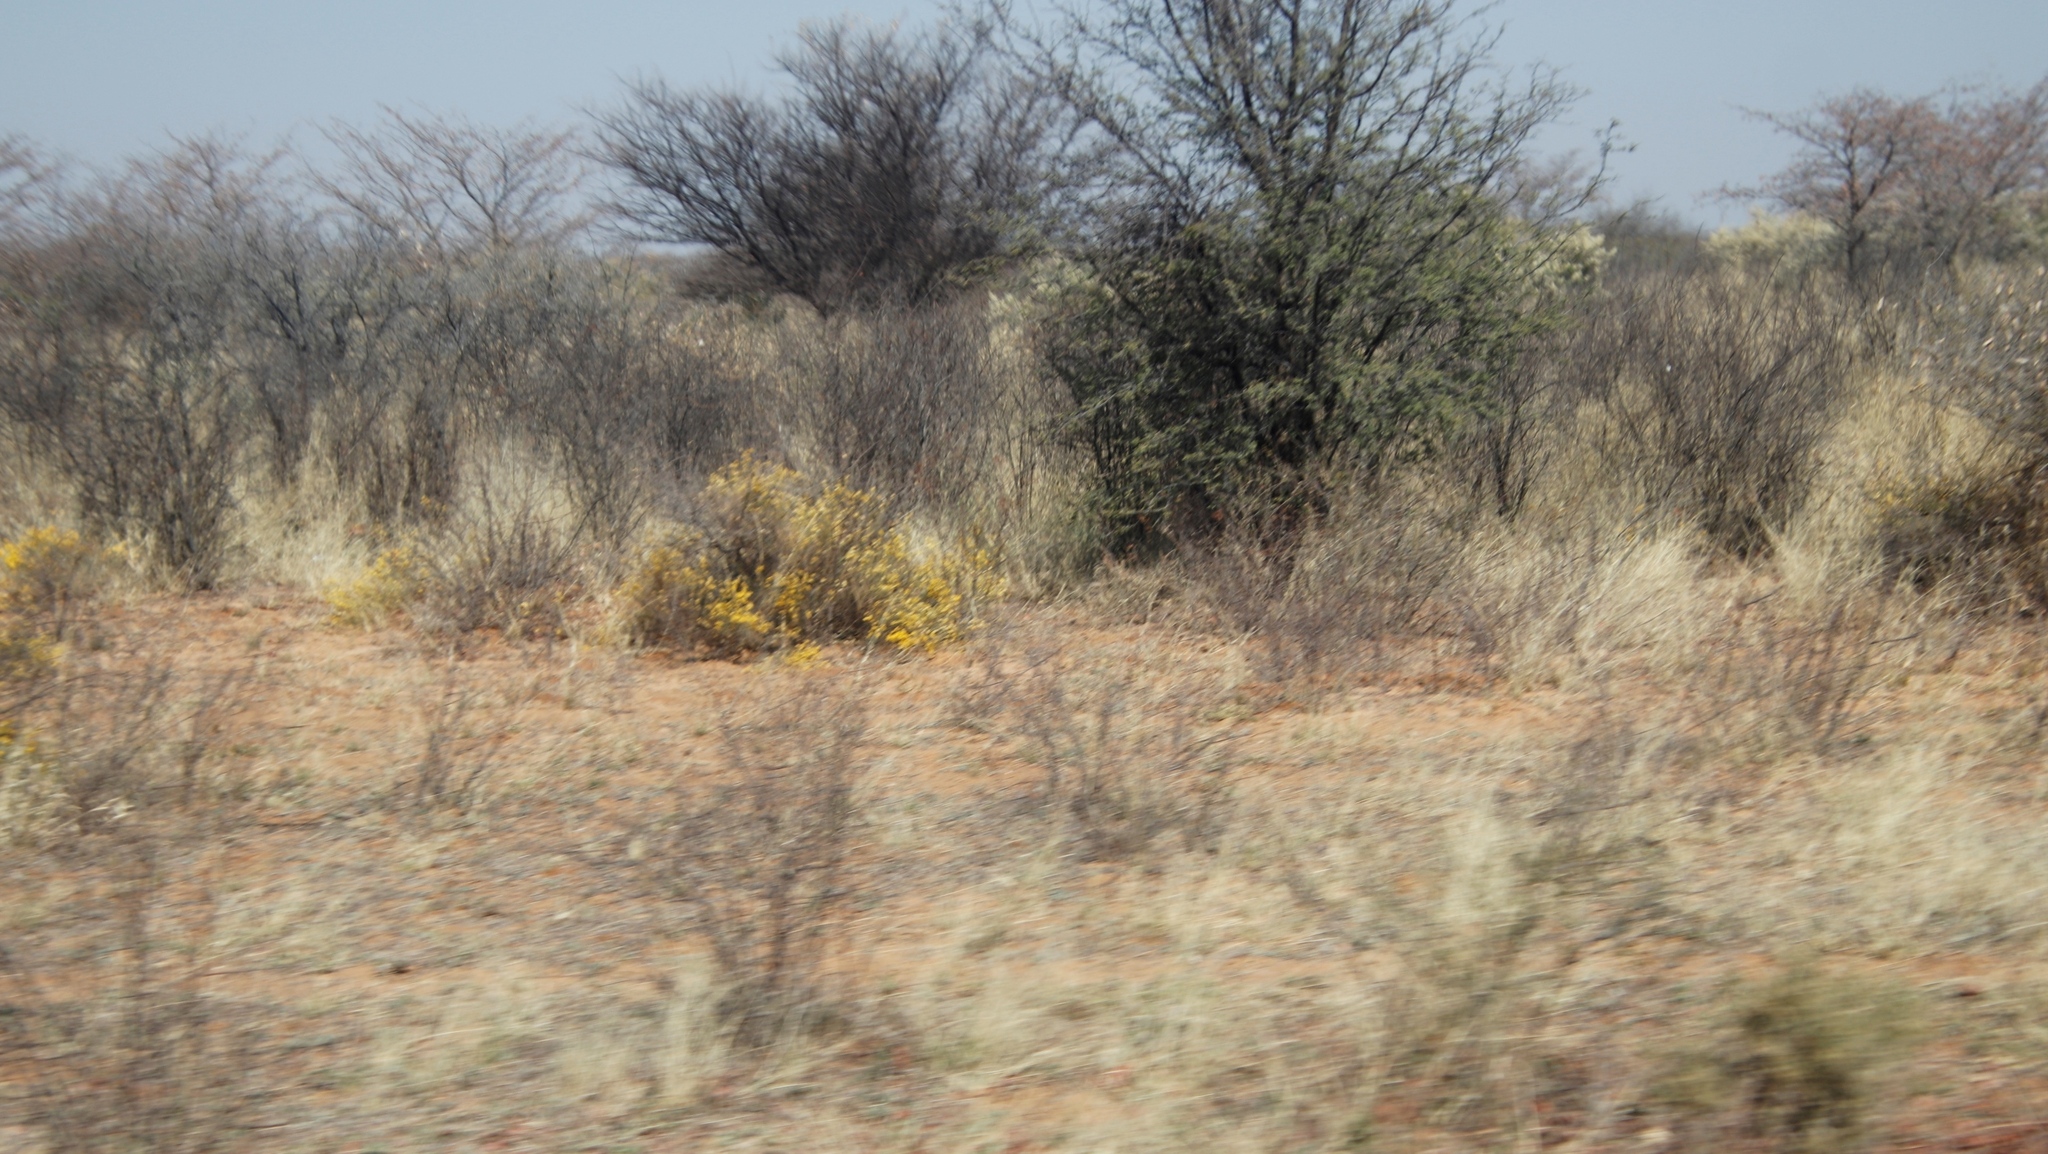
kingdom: Plantae
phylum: Tracheophyta
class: Magnoliopsida
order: Malvales
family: Thymelaeaceae
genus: Gnidia
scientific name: Gnidia polycephala
